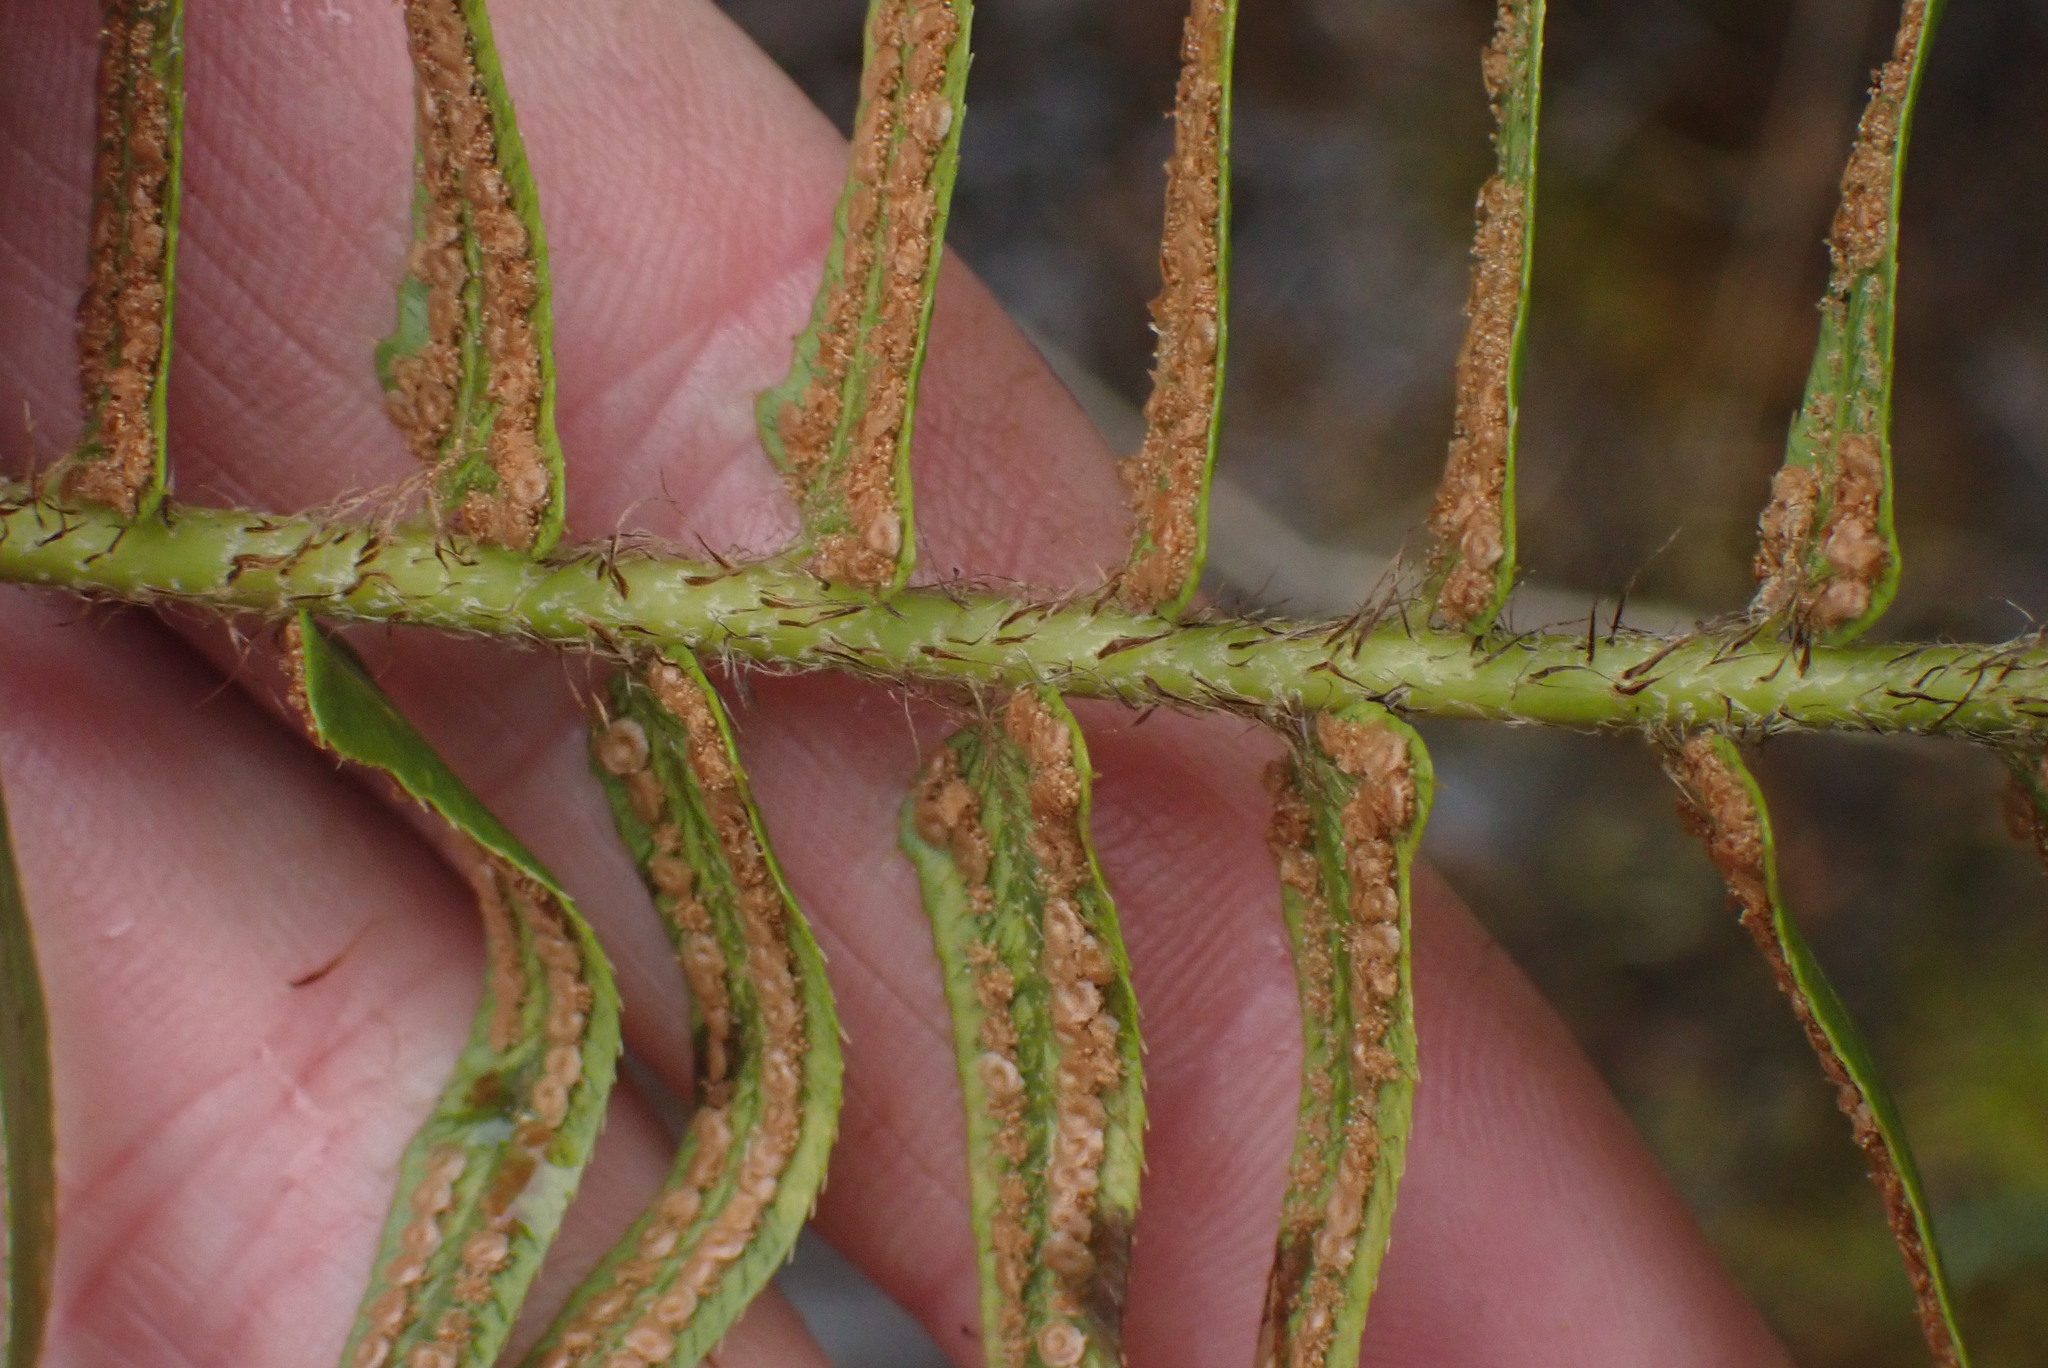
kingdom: Plantae
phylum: Tracheophyta
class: Polypodiopsida
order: Polypodiales
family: Dryopteridaceae
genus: Polystichum
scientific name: Polystichum imbricans
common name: Dwarf western sword fern
